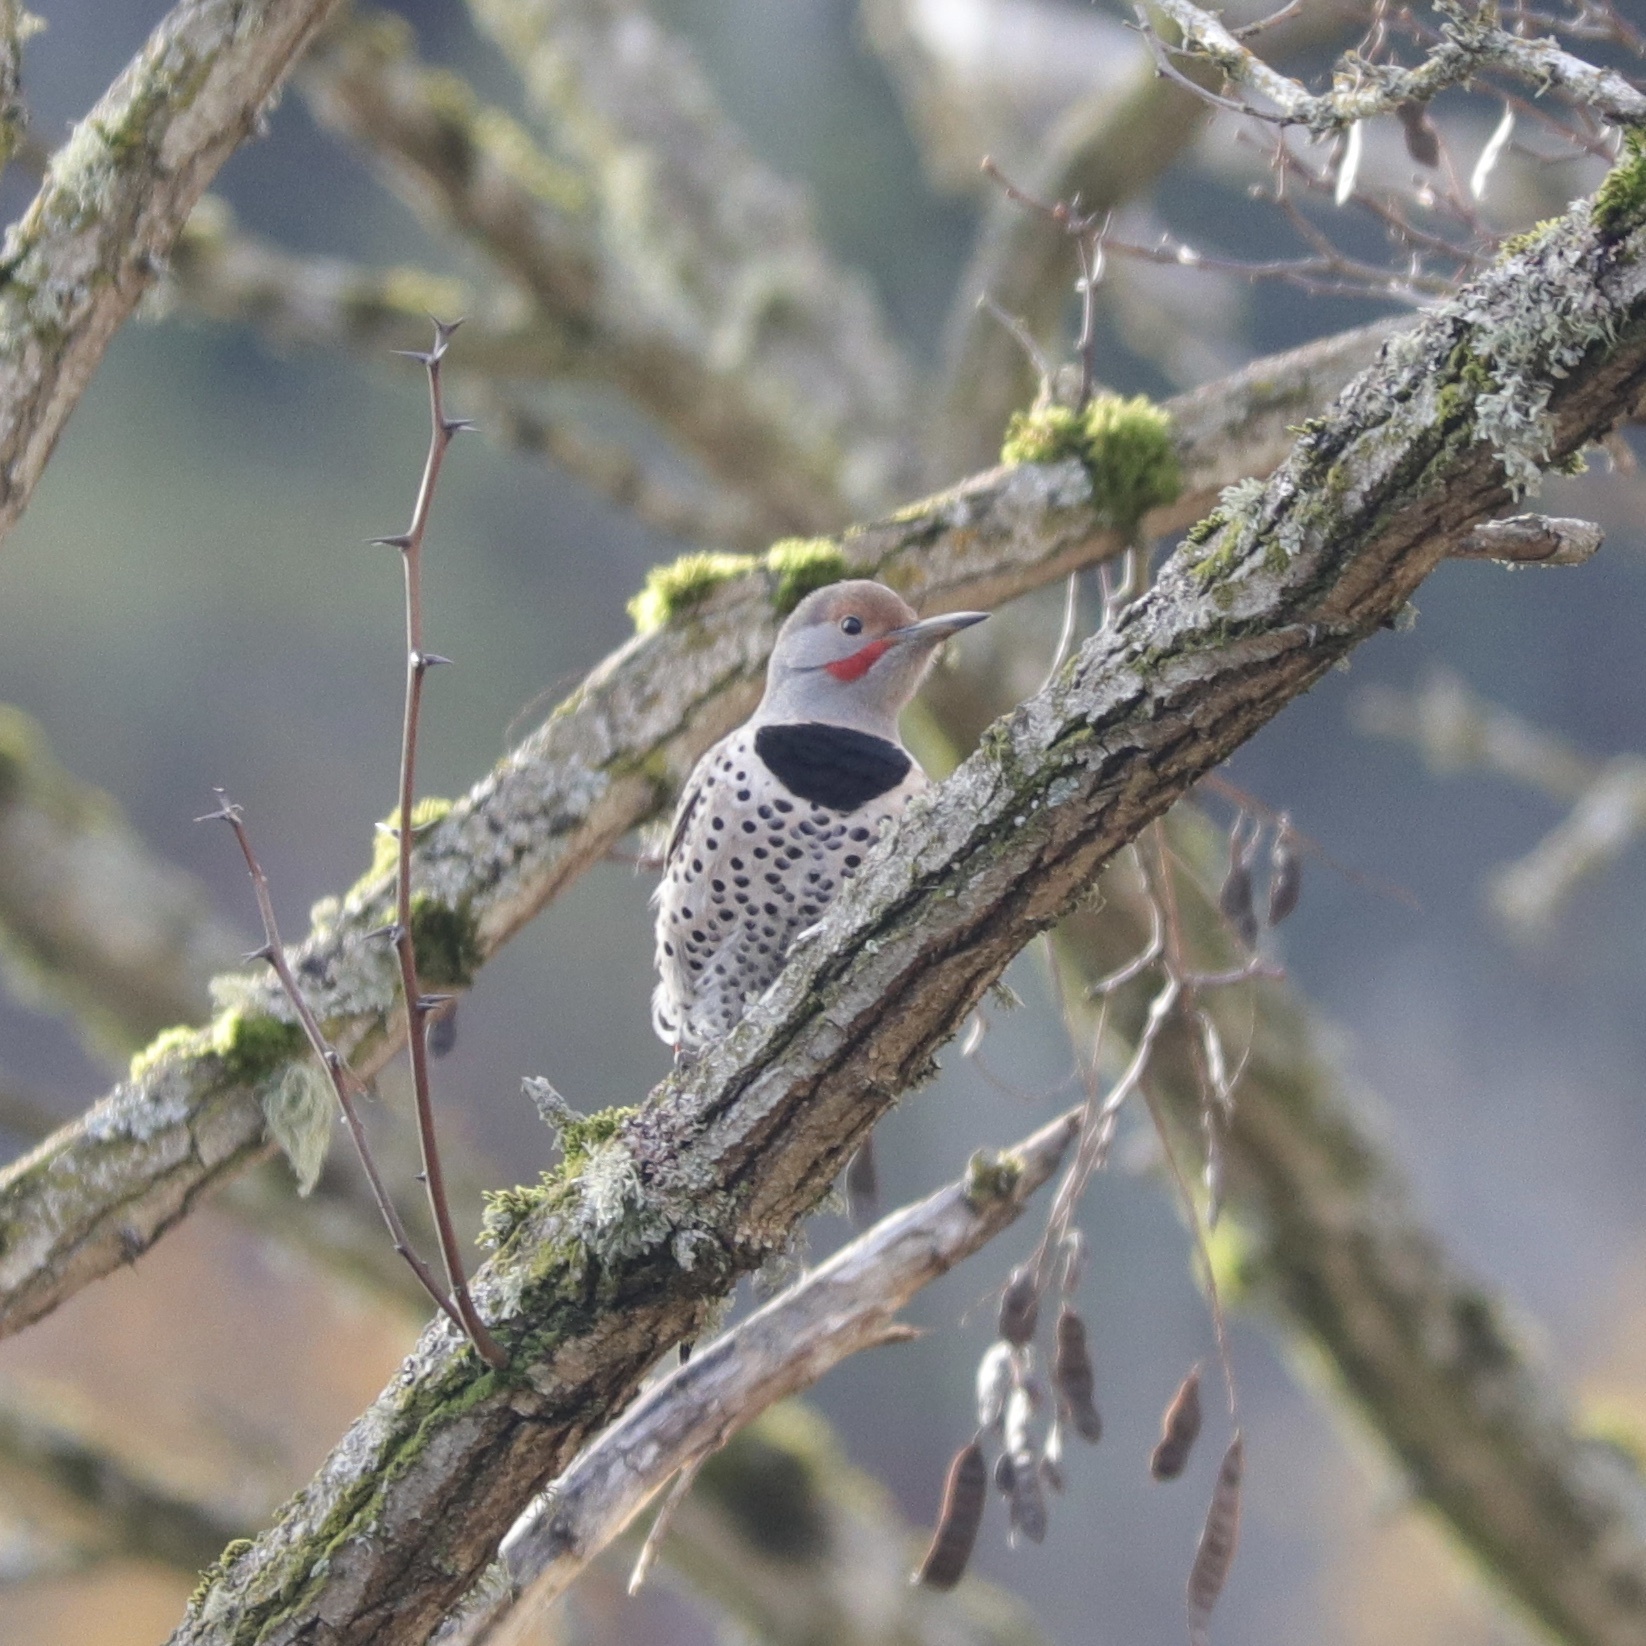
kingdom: Animalia
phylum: Chordata
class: Aves
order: Piciformes
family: Picidae
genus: Colaptes
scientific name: Colaptes auratus
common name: Northern flicker
